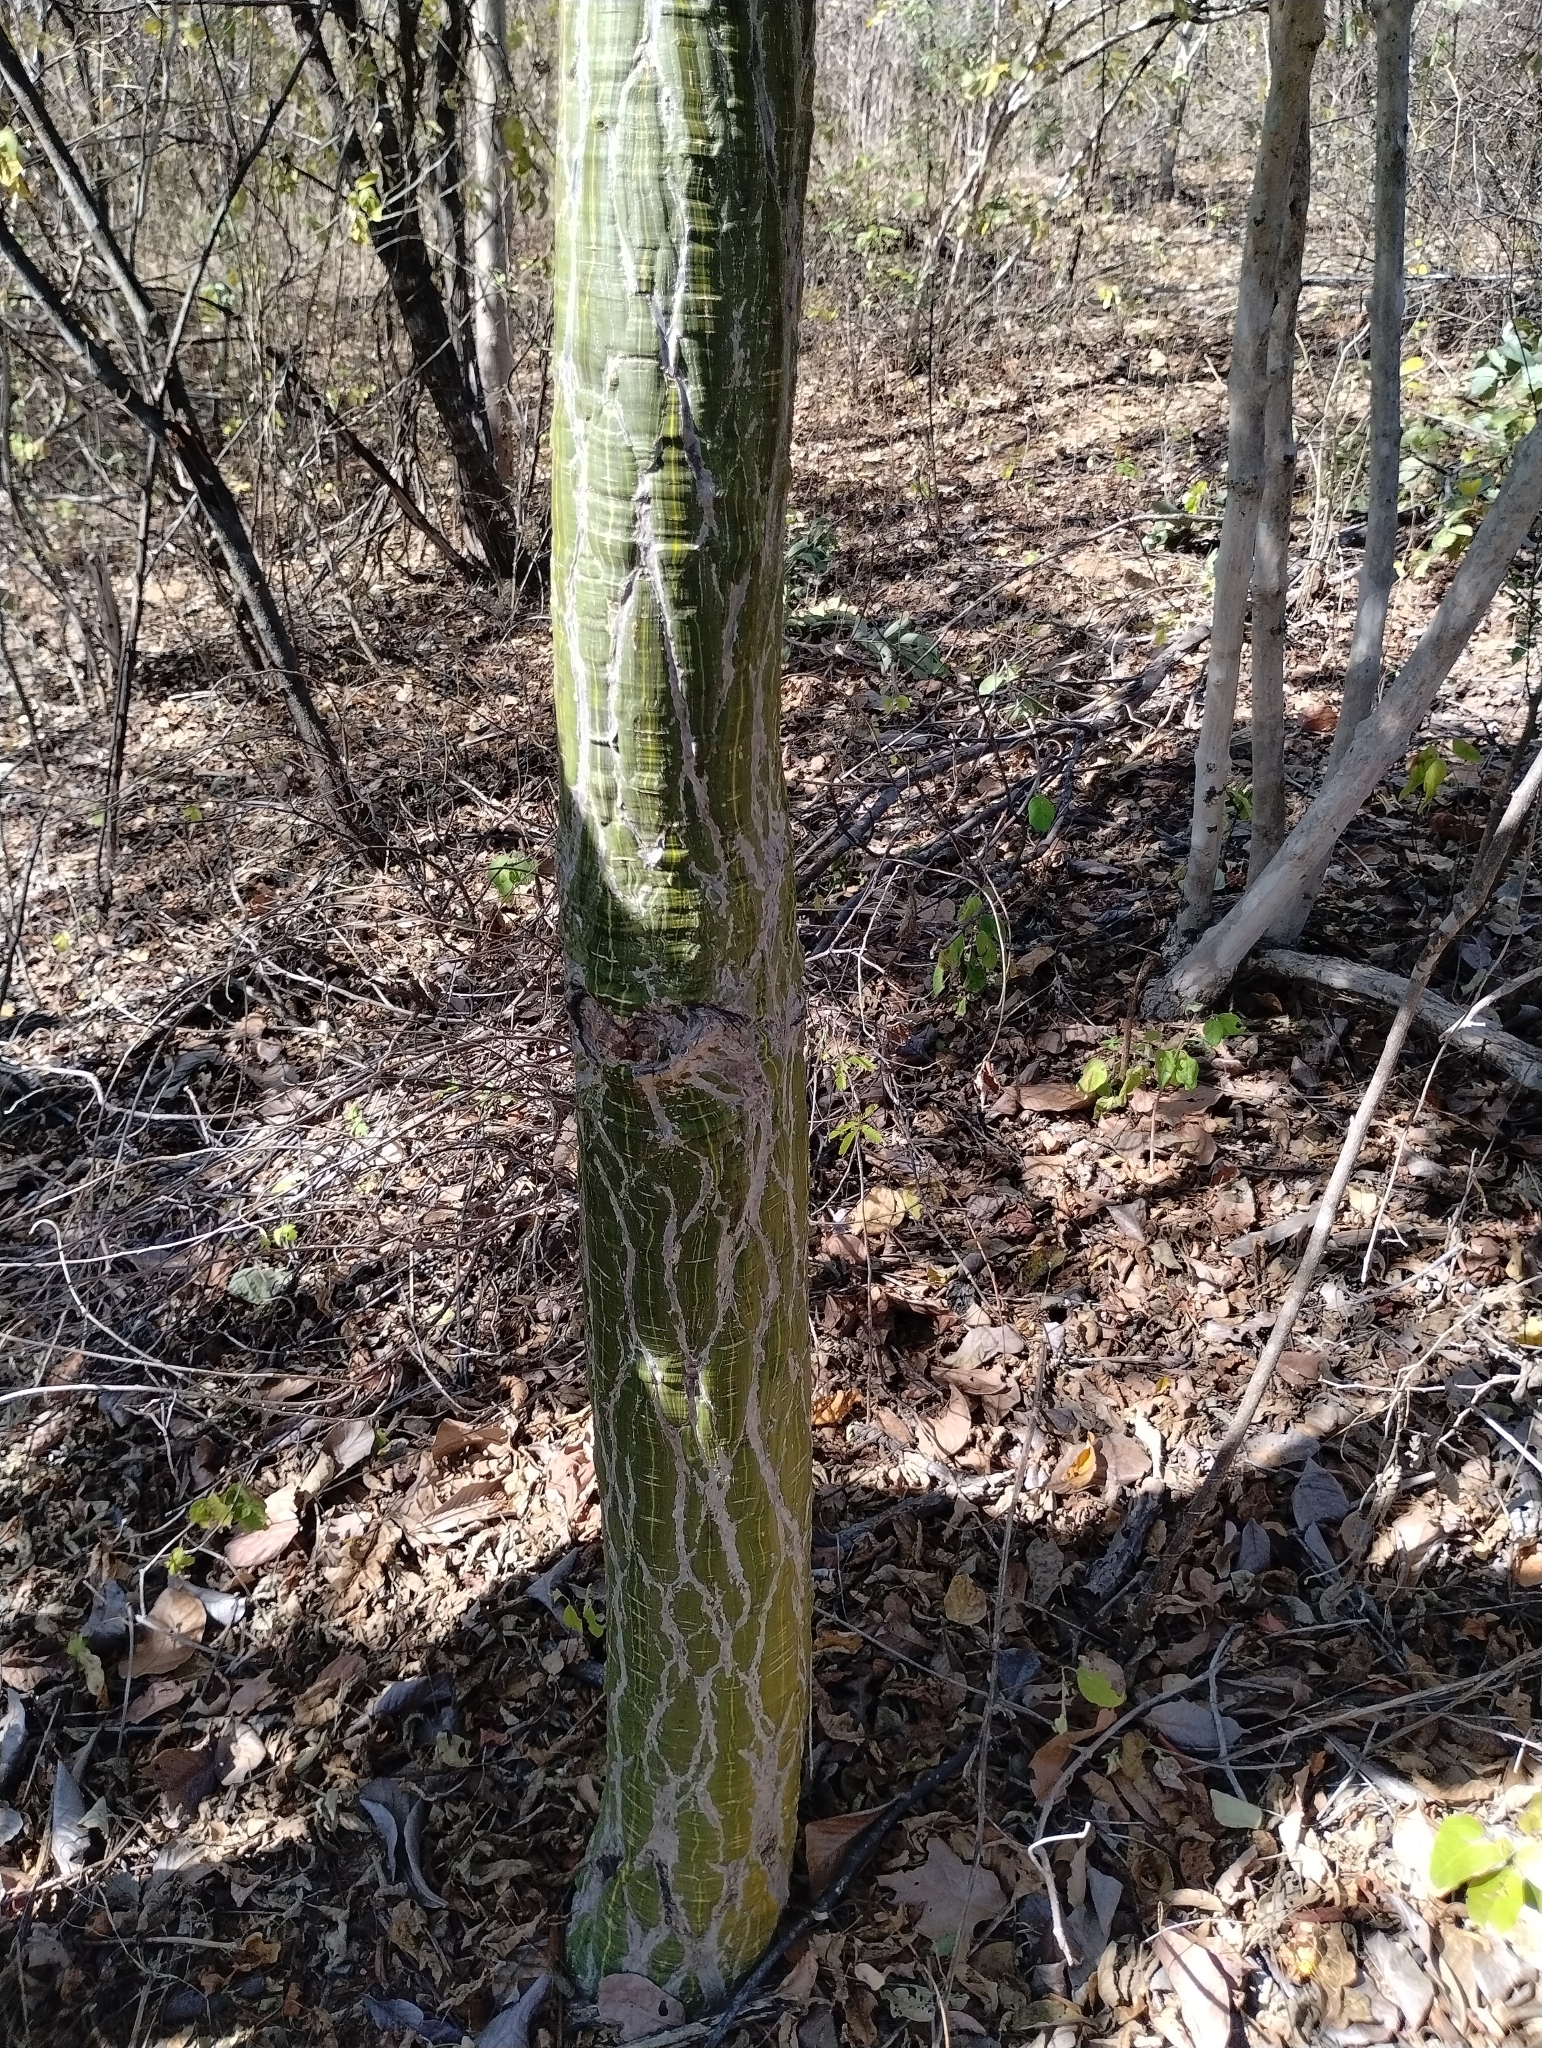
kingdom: Plantae
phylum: Tracheophyta
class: Magnoliopsida
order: Malvales
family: Malvaceae
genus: Pseudobombax
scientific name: Pseudobombax marginatum
